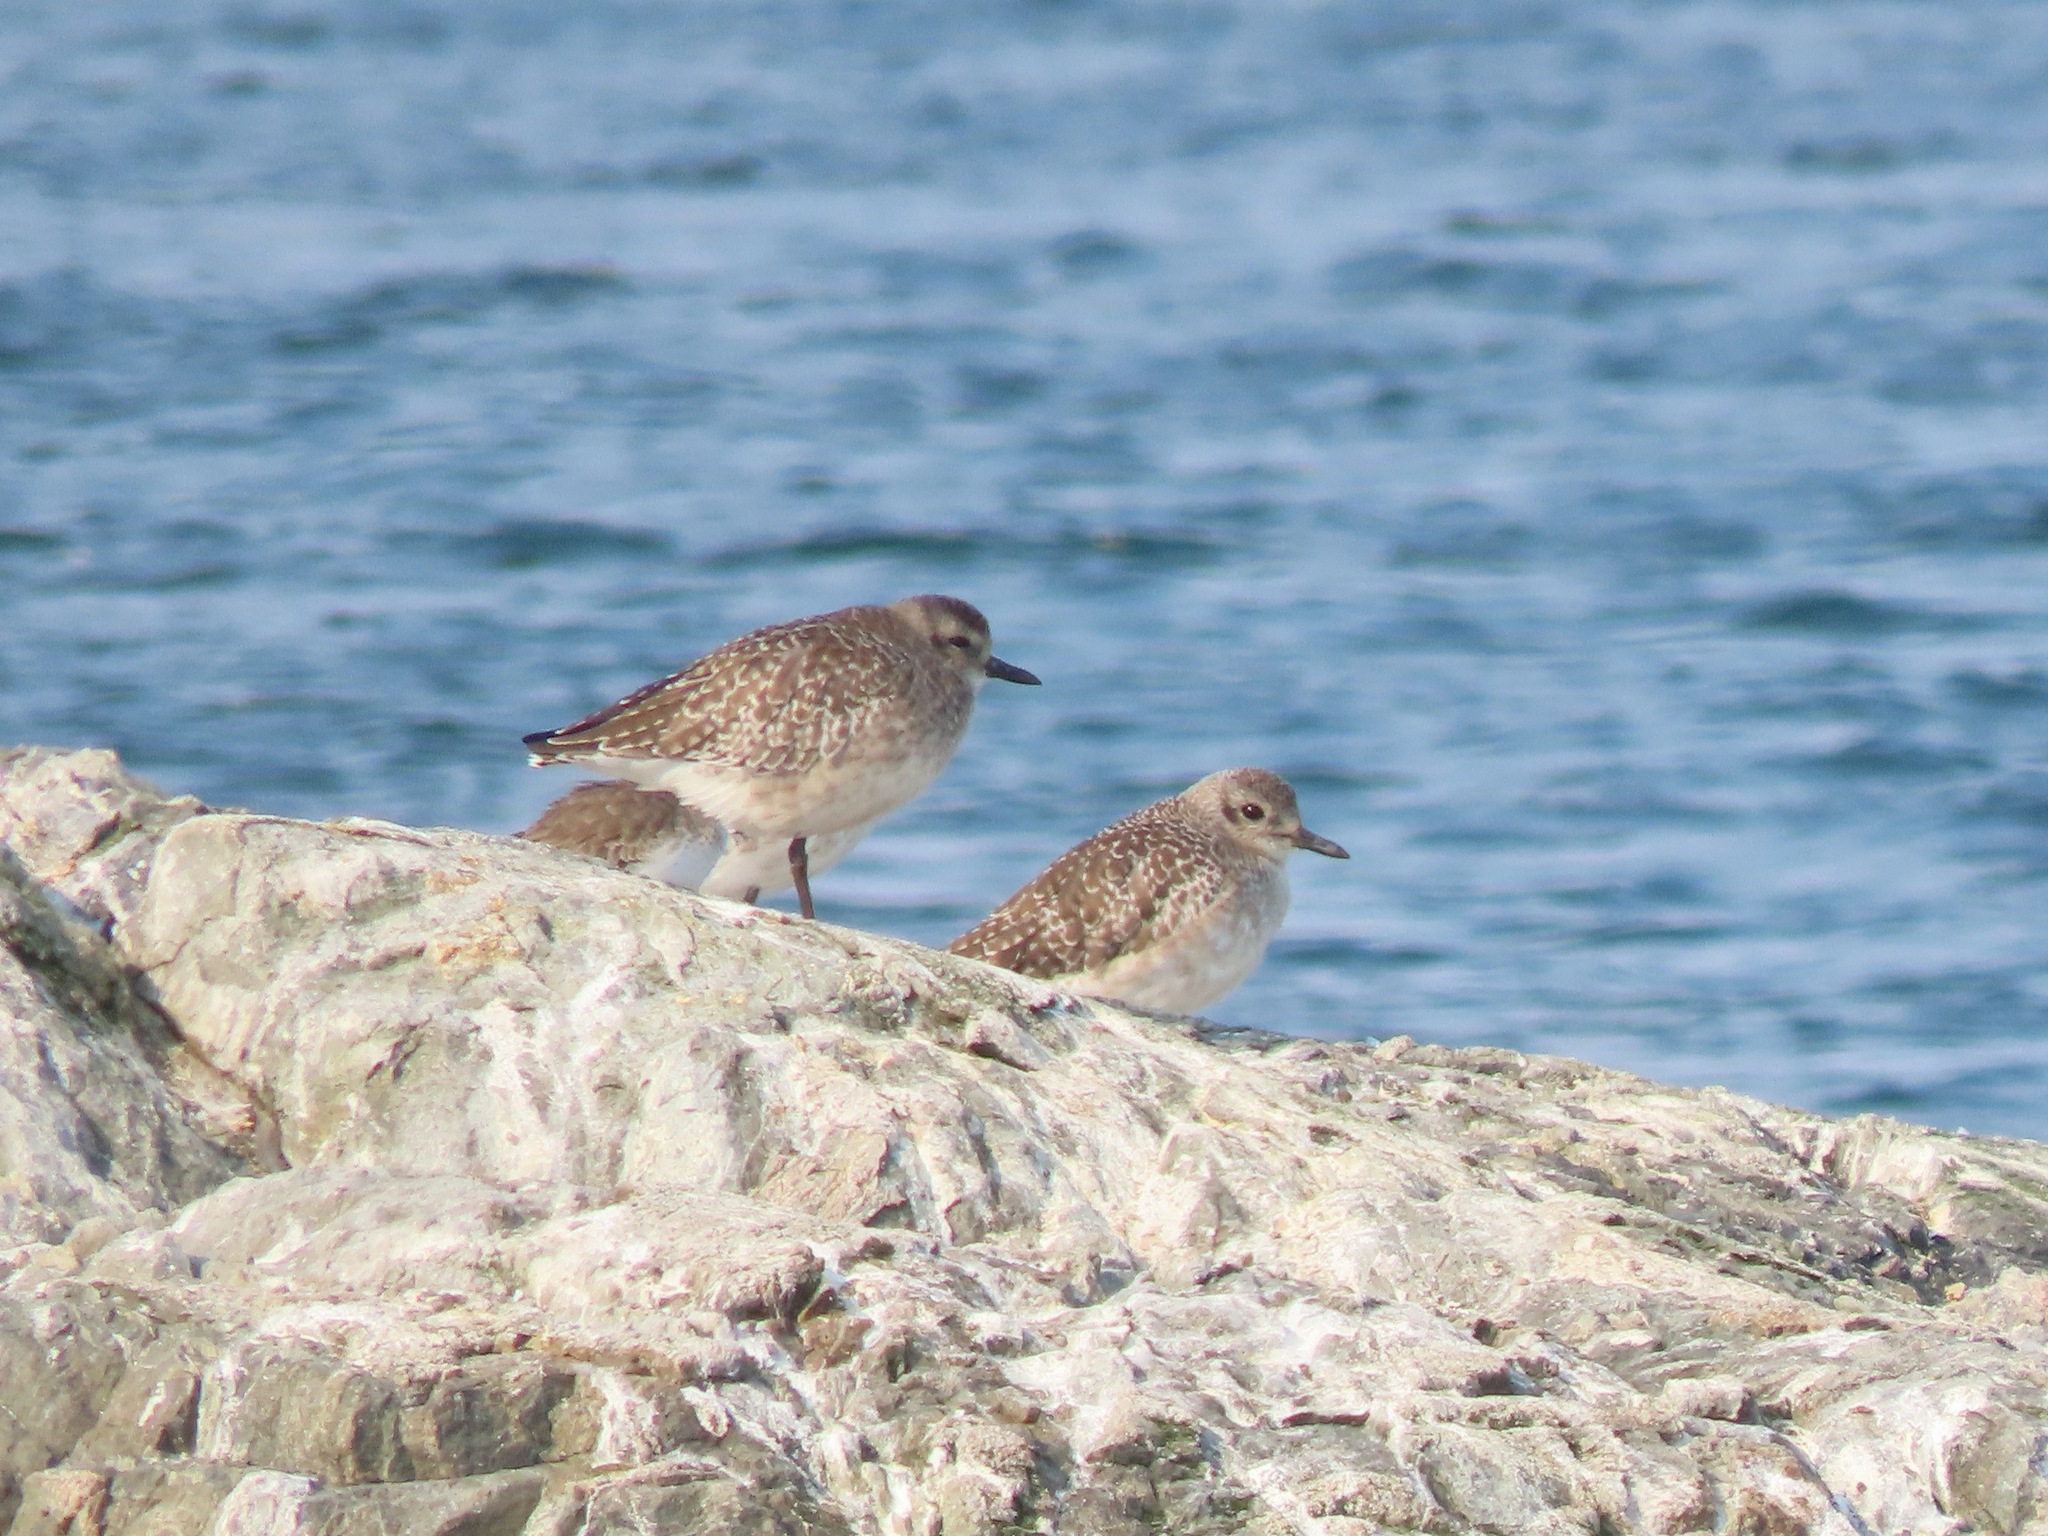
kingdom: Animalia
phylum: Chordata
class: Aves
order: Charadriiformes
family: Charadriidae
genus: Pluvialis
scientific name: Pluvialis squatarola
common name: Grey plover
